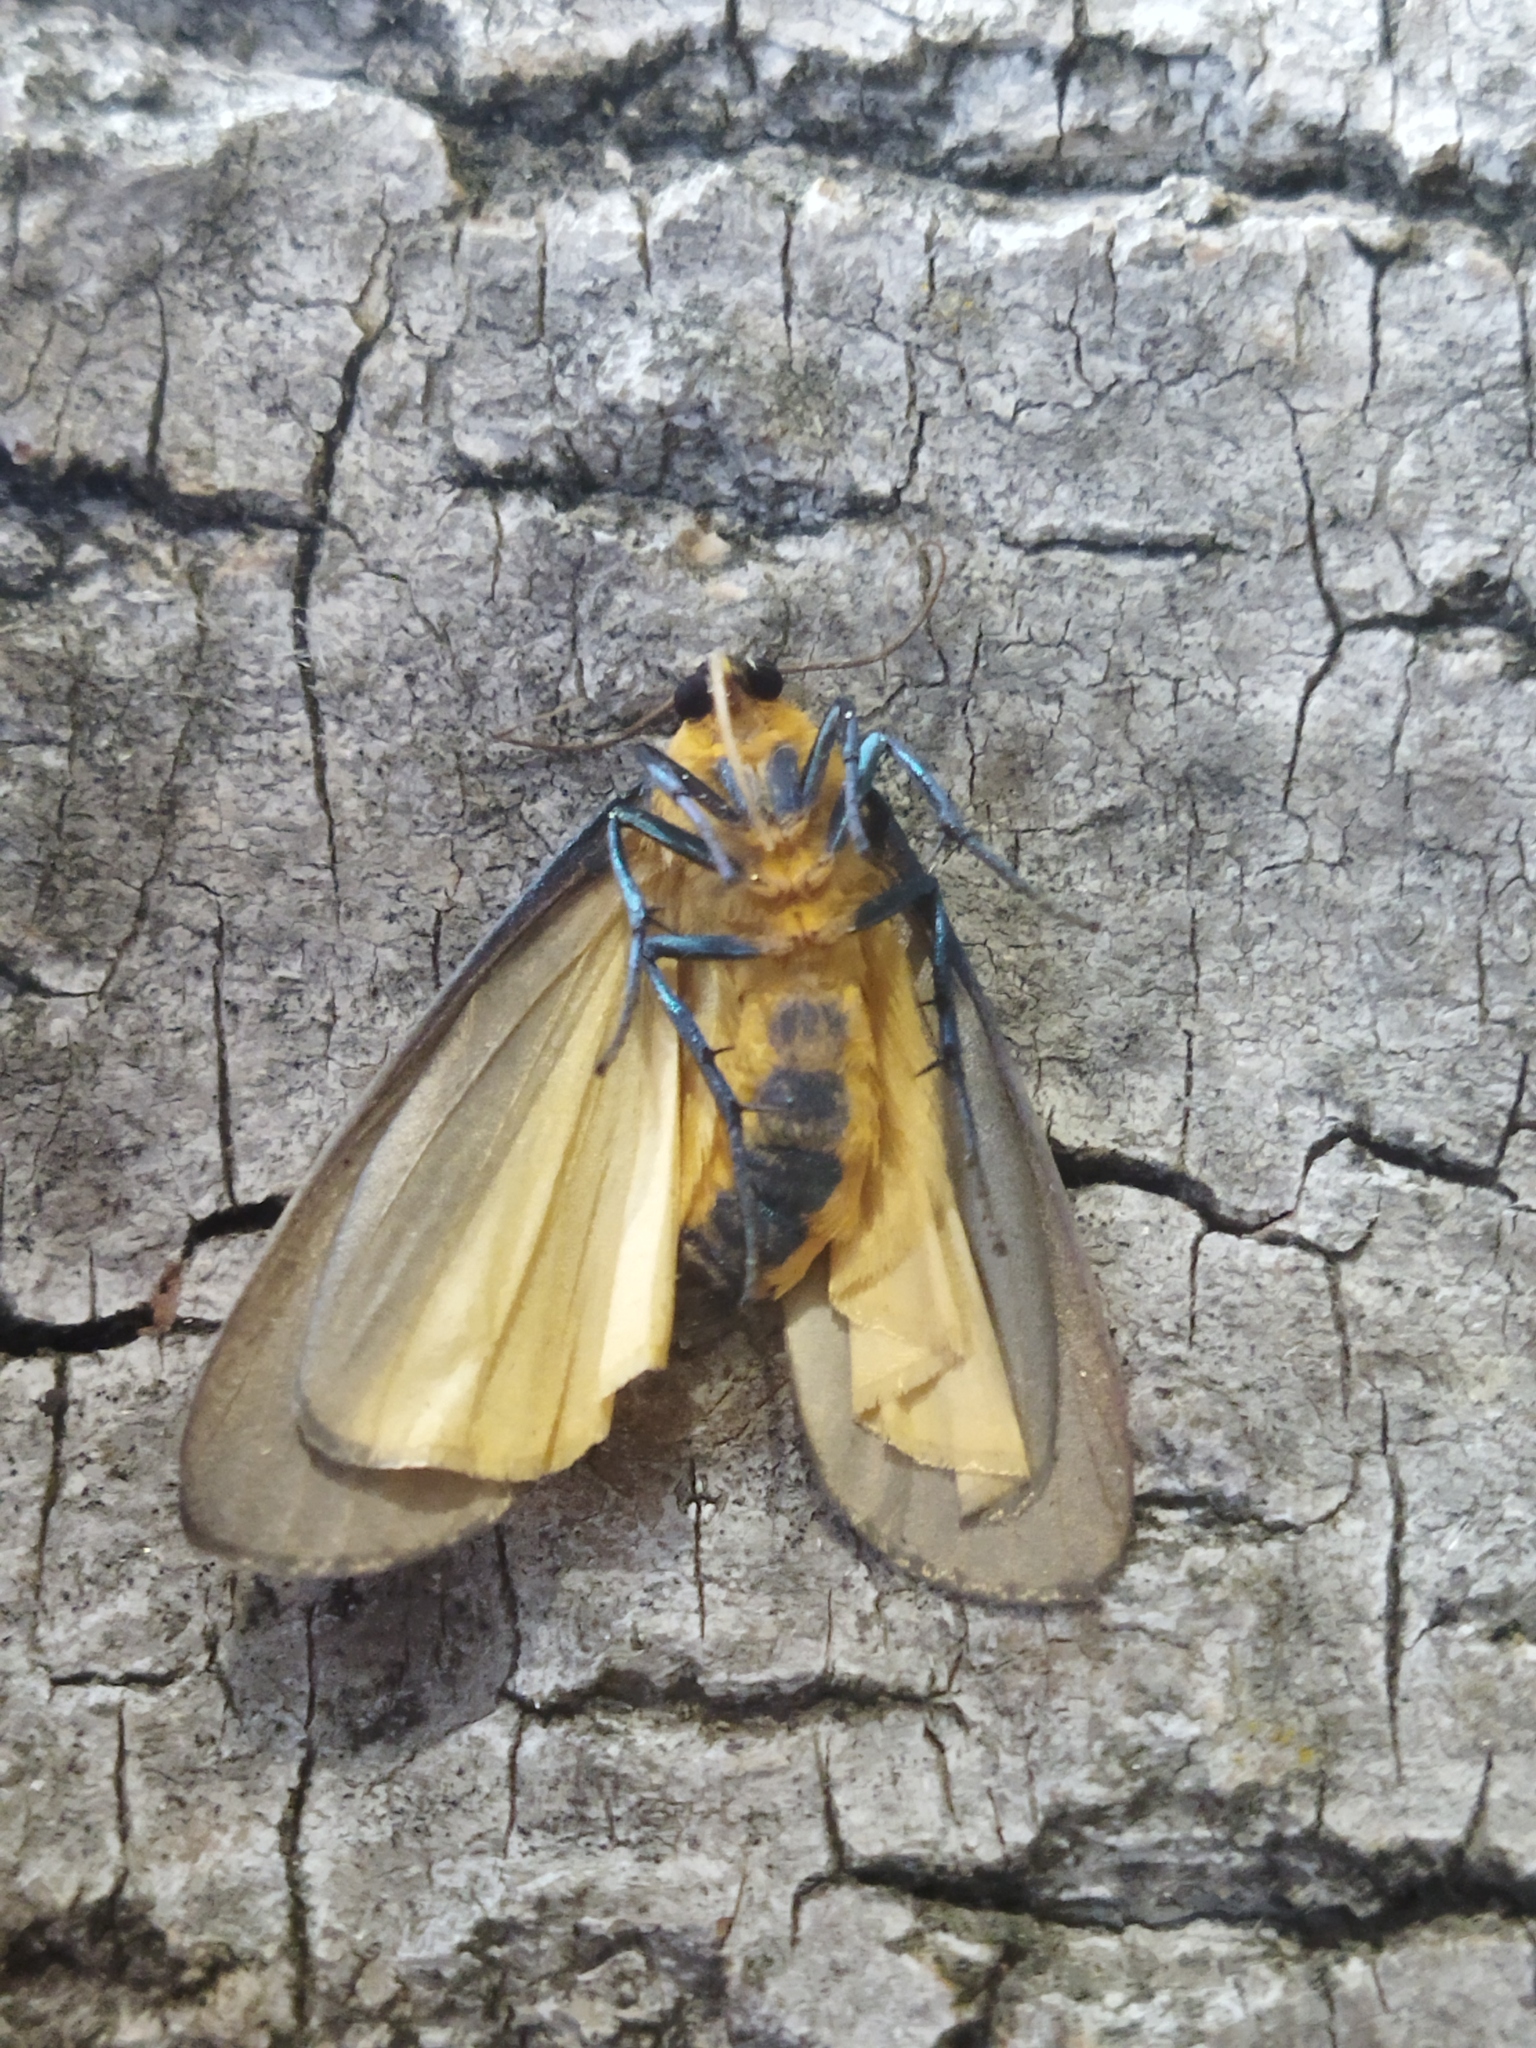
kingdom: Animalia
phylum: Arthropoda
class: Insecta
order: Lepidoptera
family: Erebidae
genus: Lithosia
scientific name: Lithosia quadra
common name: Four-spotted footman
